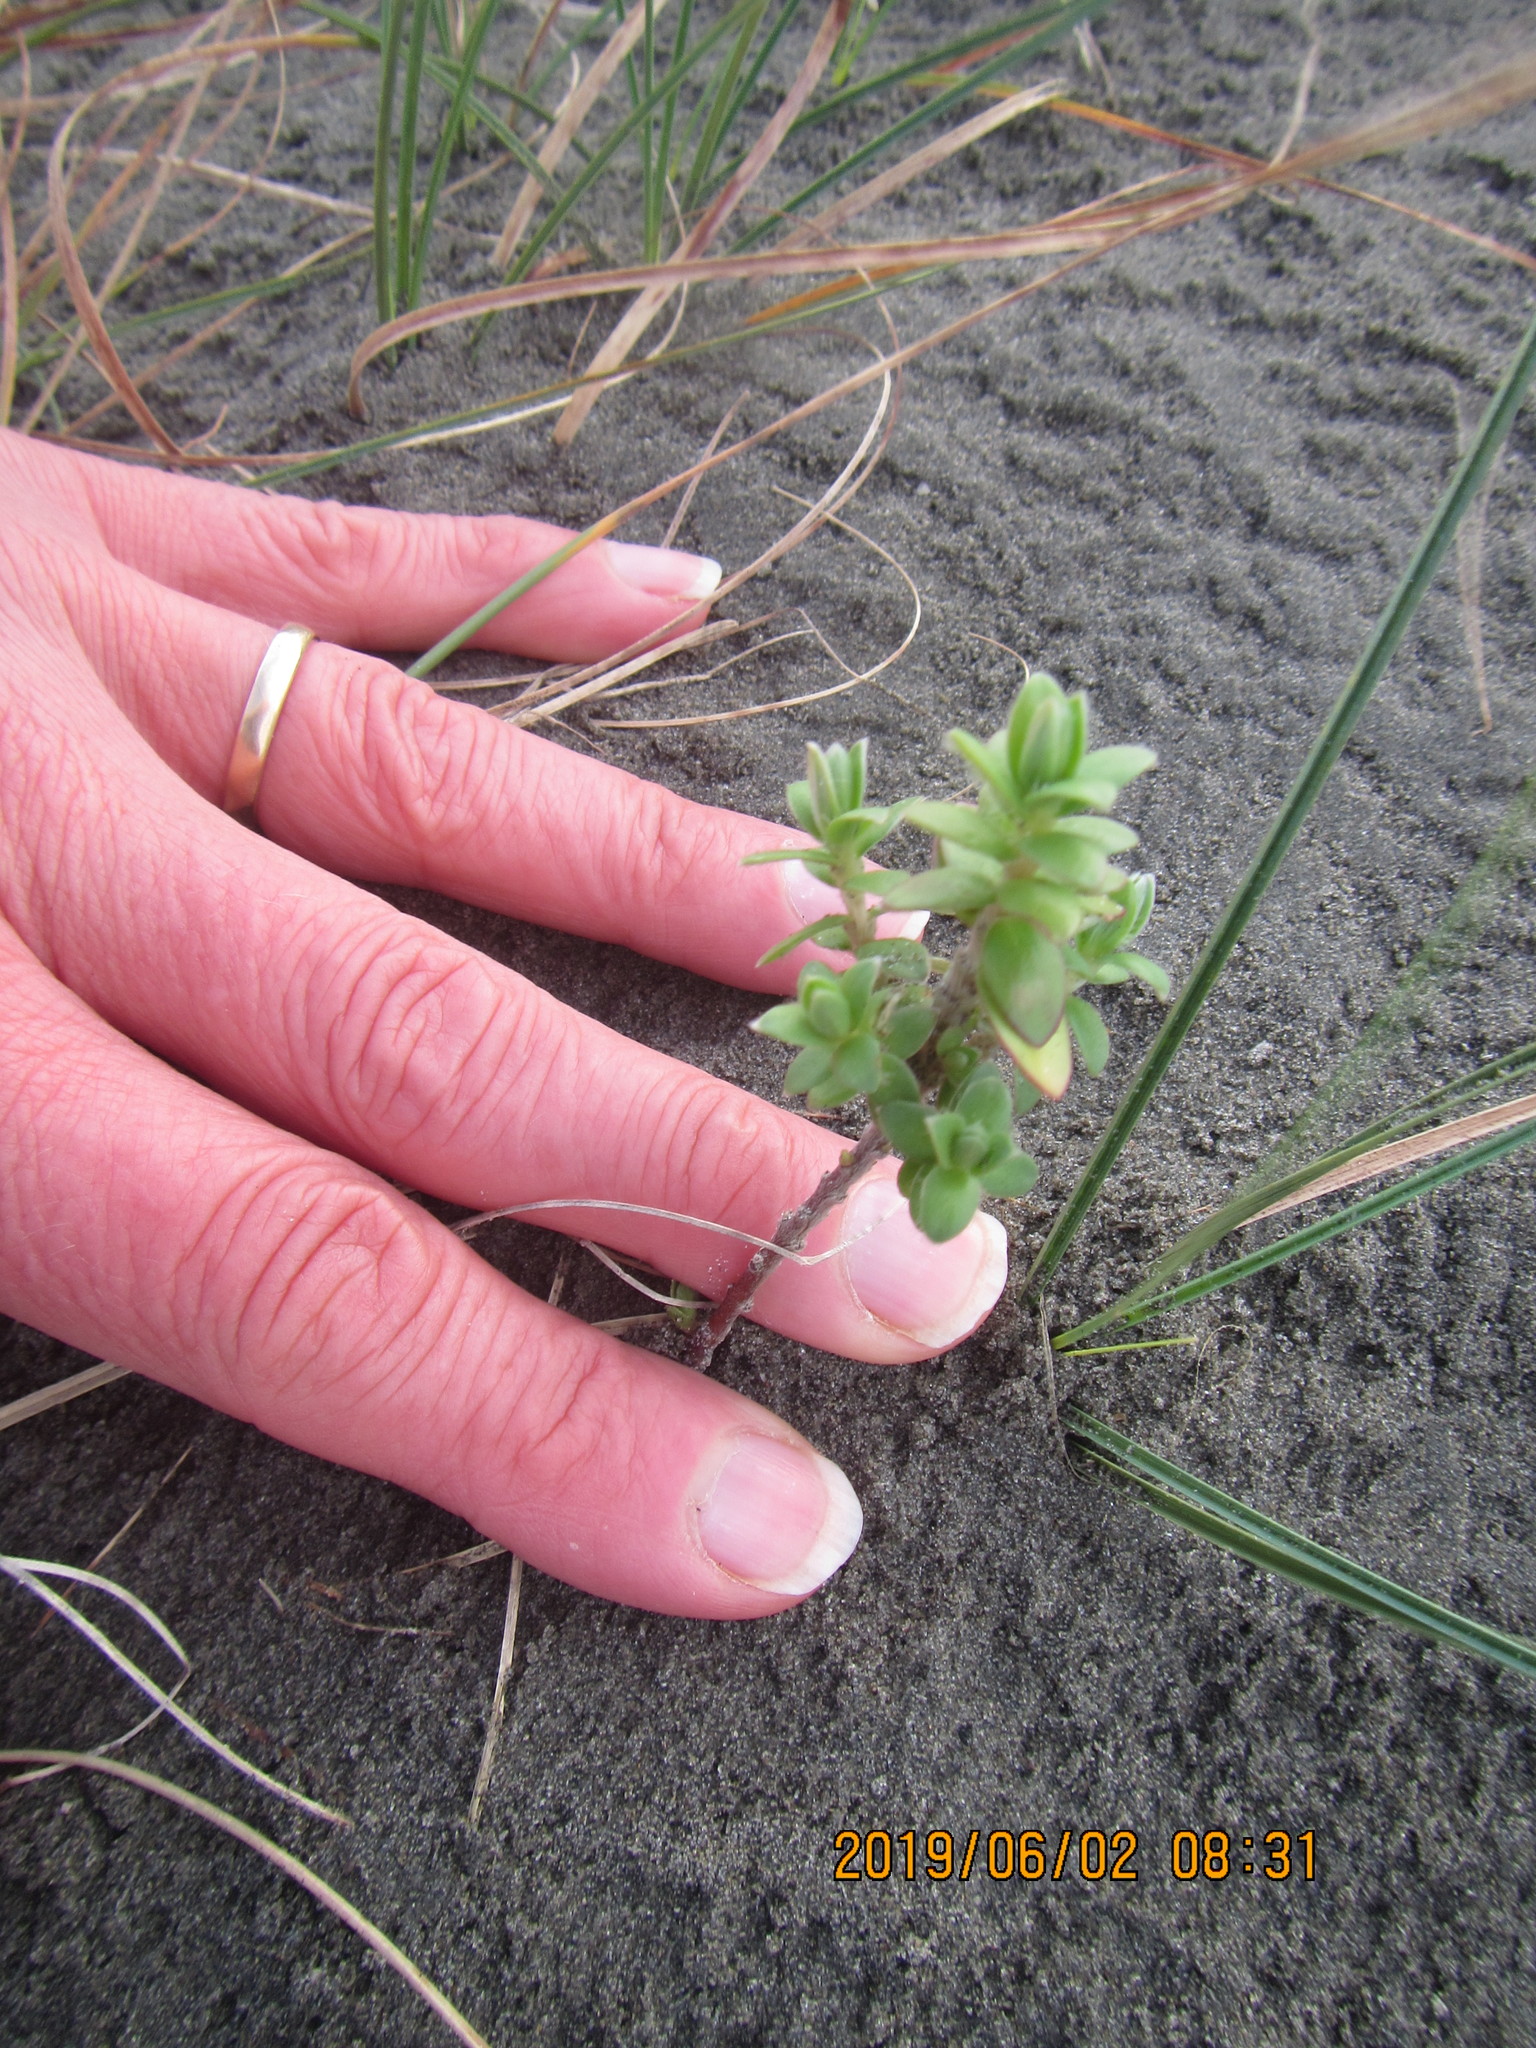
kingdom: Plantae
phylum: Tracheophyta
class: Magnoliopsida
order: Malvales
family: Thymelaeaceae
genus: Pimelea
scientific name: Pimelea villosa
